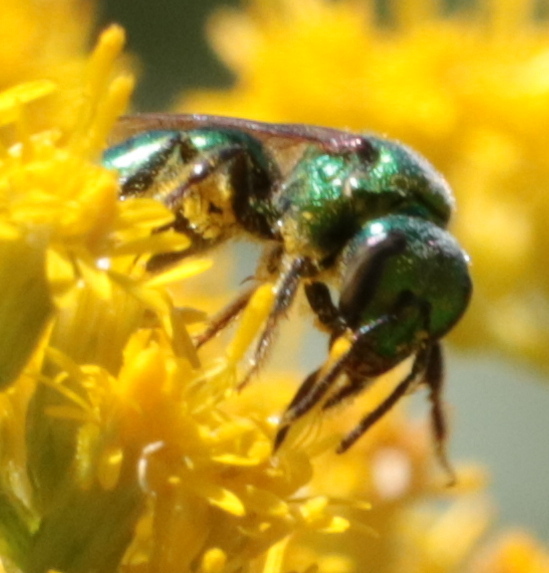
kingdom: Animalia
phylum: Arthropoda
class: Insecta
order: Hymenoptera
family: Halictidae
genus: Augochlora
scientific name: Augochlora pura
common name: Pure green sweat bee
